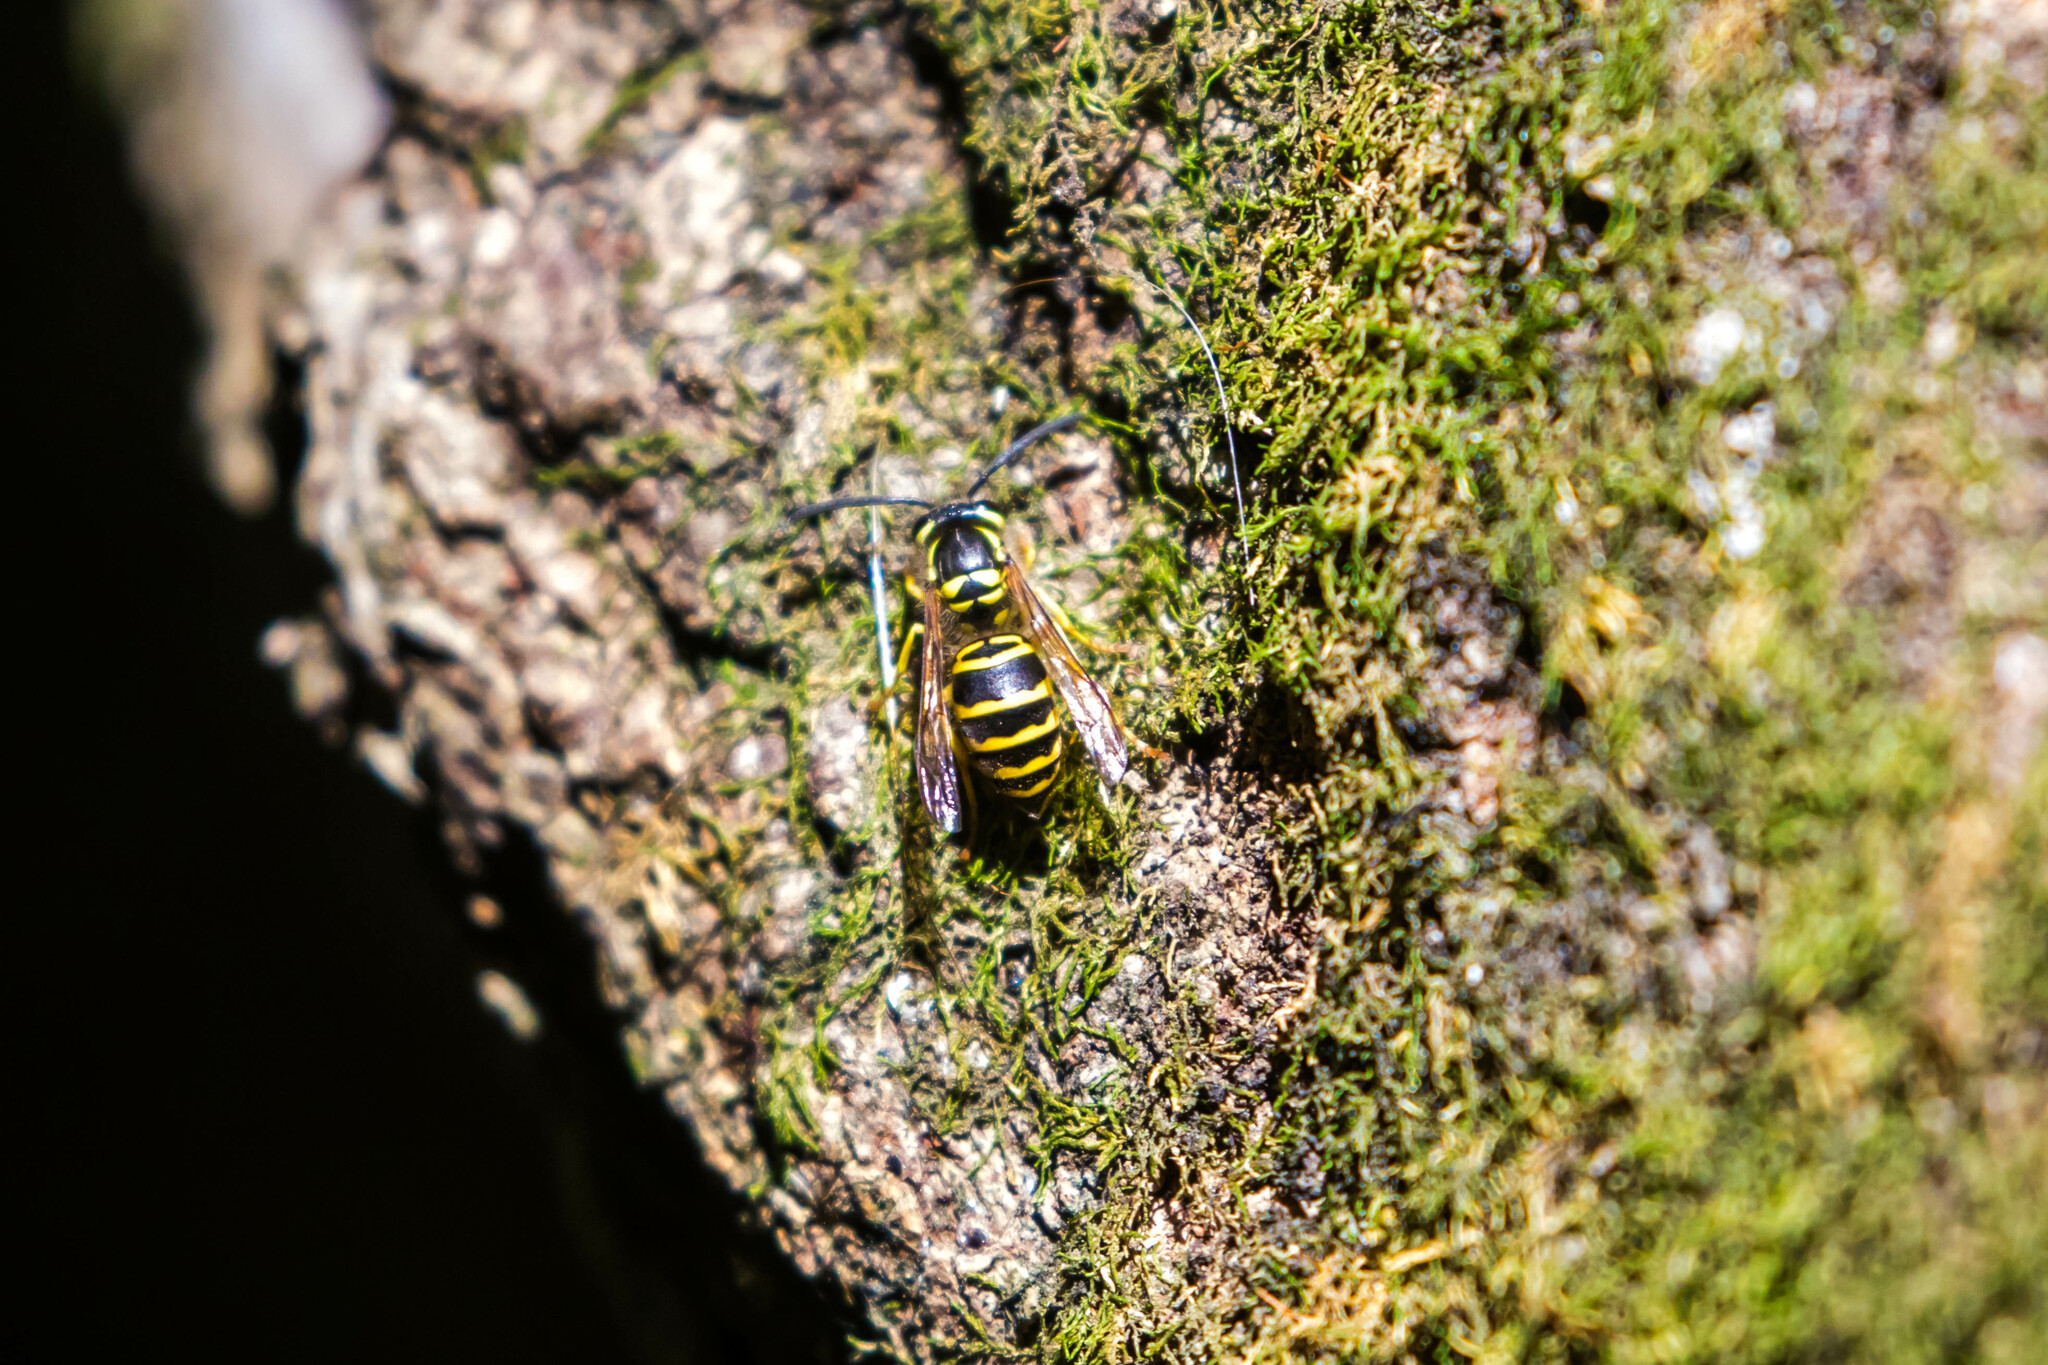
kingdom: Animalia
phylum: Arthropoda
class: Insecta
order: Hymenoptera
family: Vespidae
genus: Vespula
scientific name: Vespula maculifrons
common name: Eastern yellowjacket
